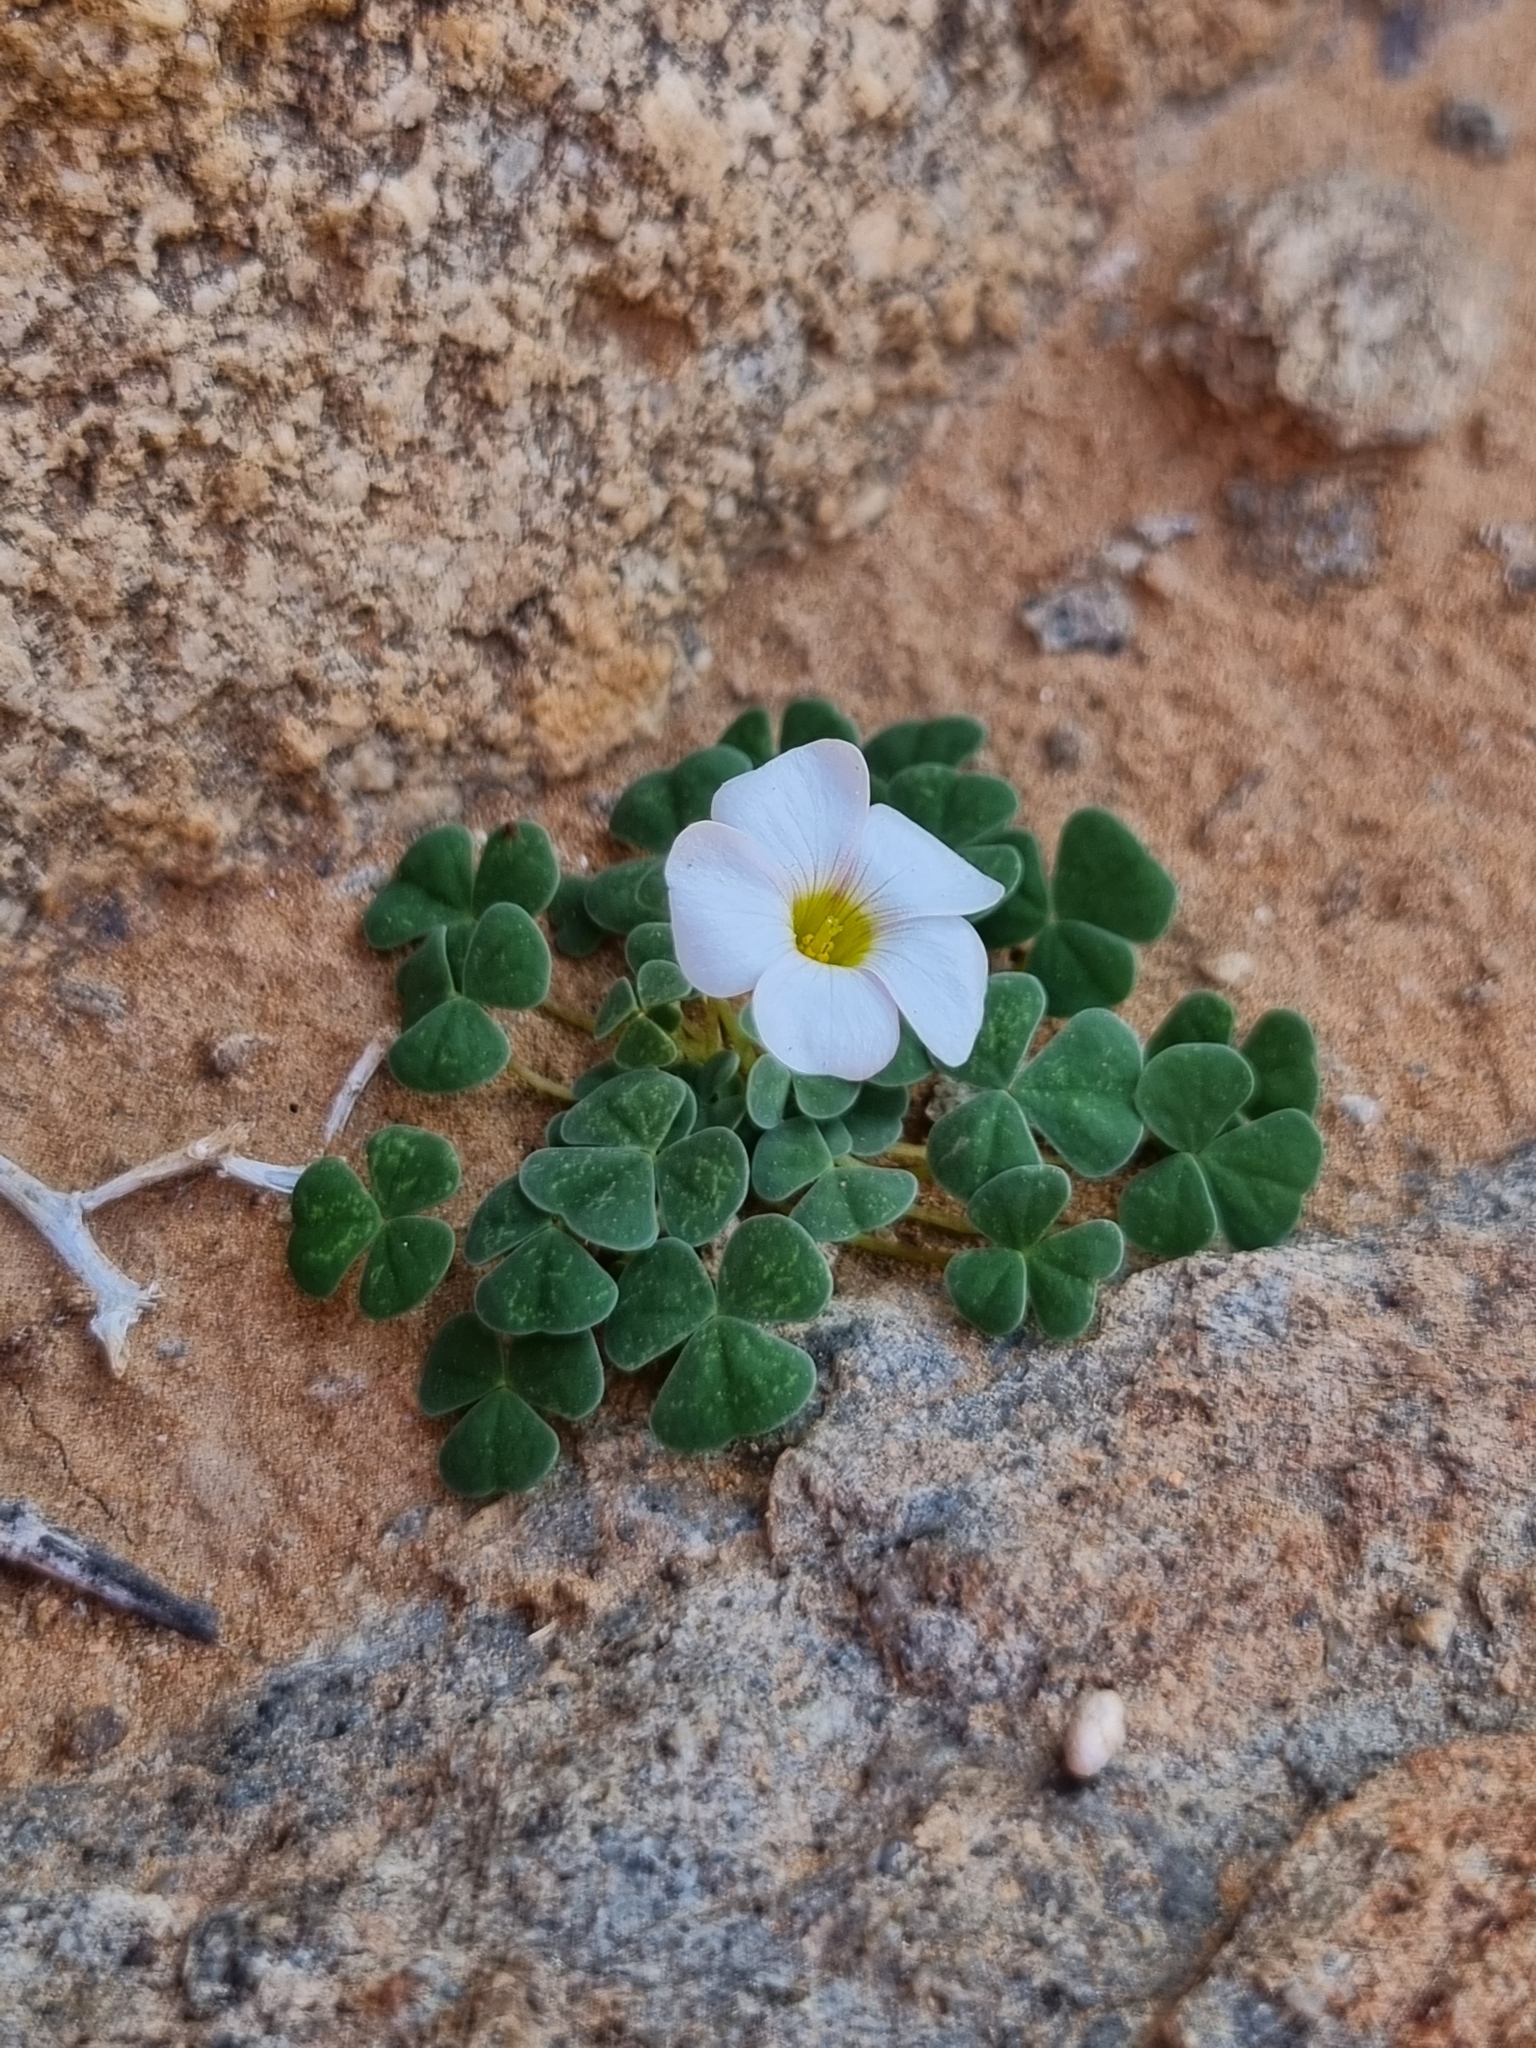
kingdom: Plantae
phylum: Tracheophyta
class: Magnoliopsida
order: Oxalidales
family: Oxalidaceae
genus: Oxalis
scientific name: Oxalis sonderiana
